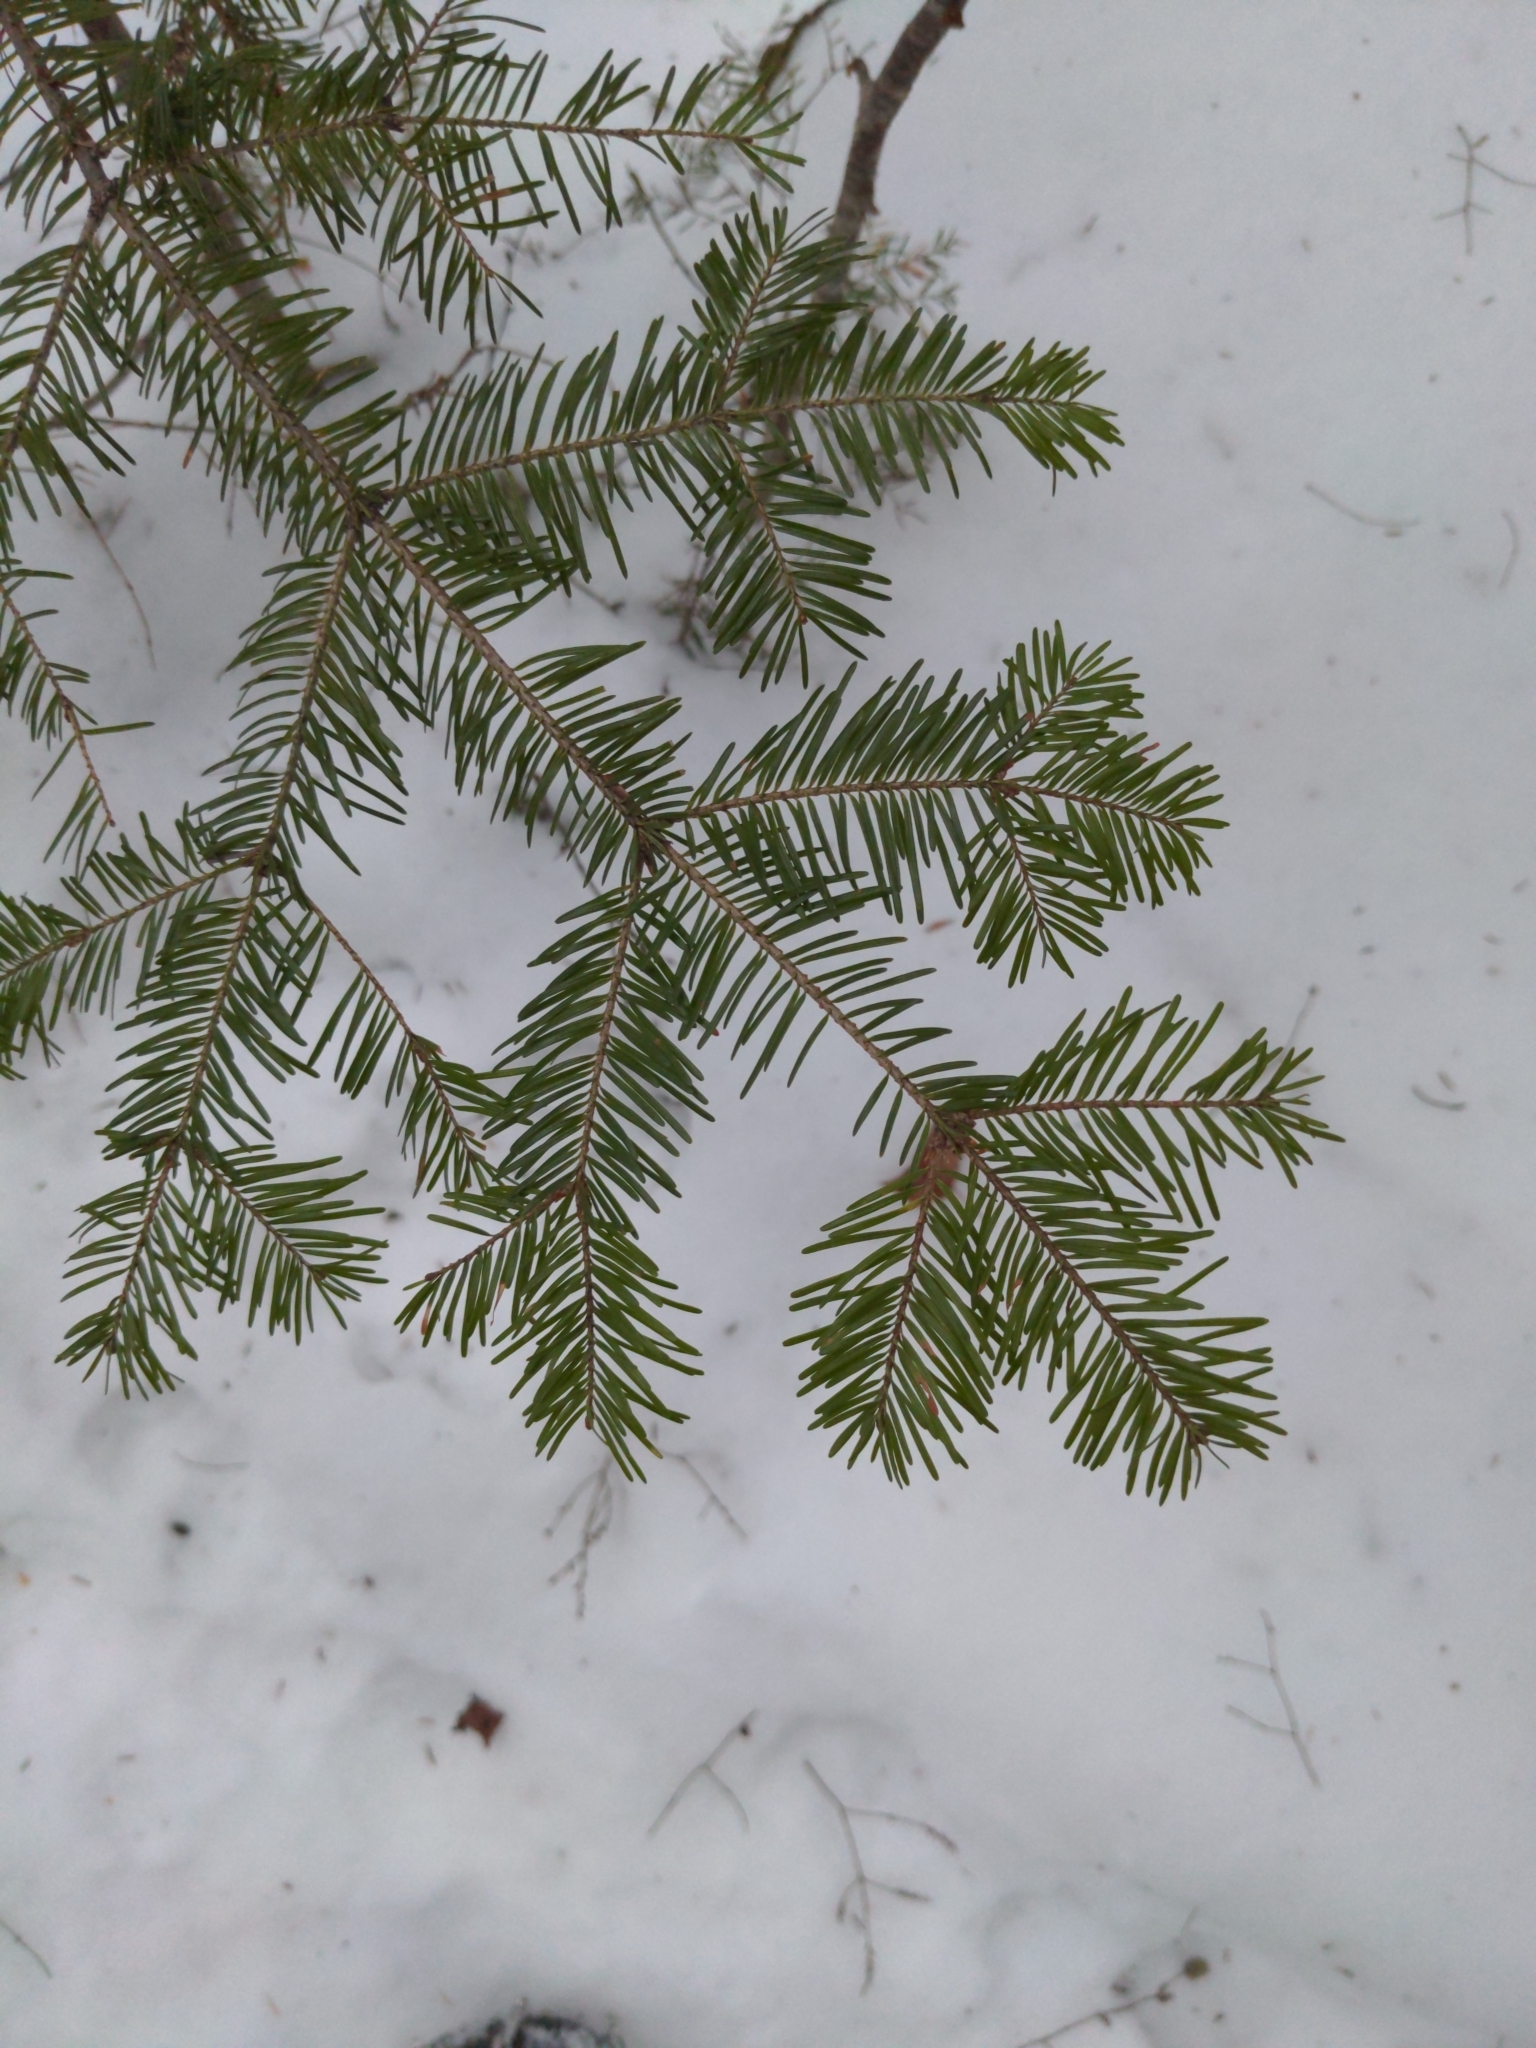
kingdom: Plantae
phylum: Tracheophyta
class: Pinopsida
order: Pinales
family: Pinaceae
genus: Abies
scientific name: Abies balsamea
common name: Balsam fir
